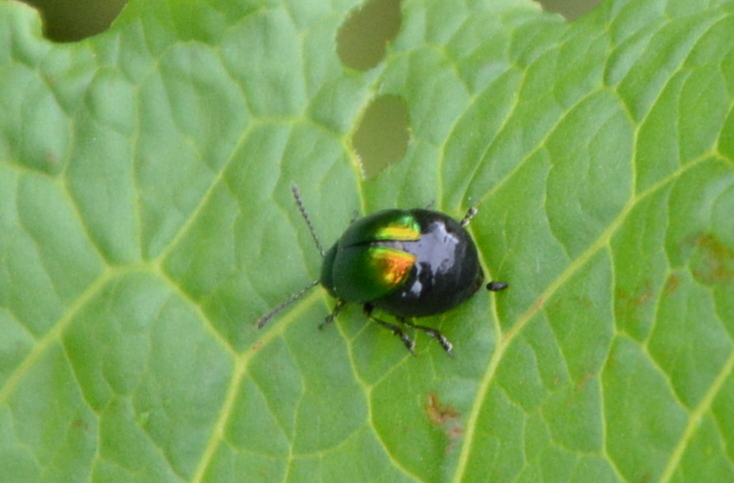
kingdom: Animalia
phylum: Arthropoda
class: Insecta
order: Coleoptera
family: Chrysomelidae
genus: Gastrophysa
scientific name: Gastrophysa viridula
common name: Green dock beetle
